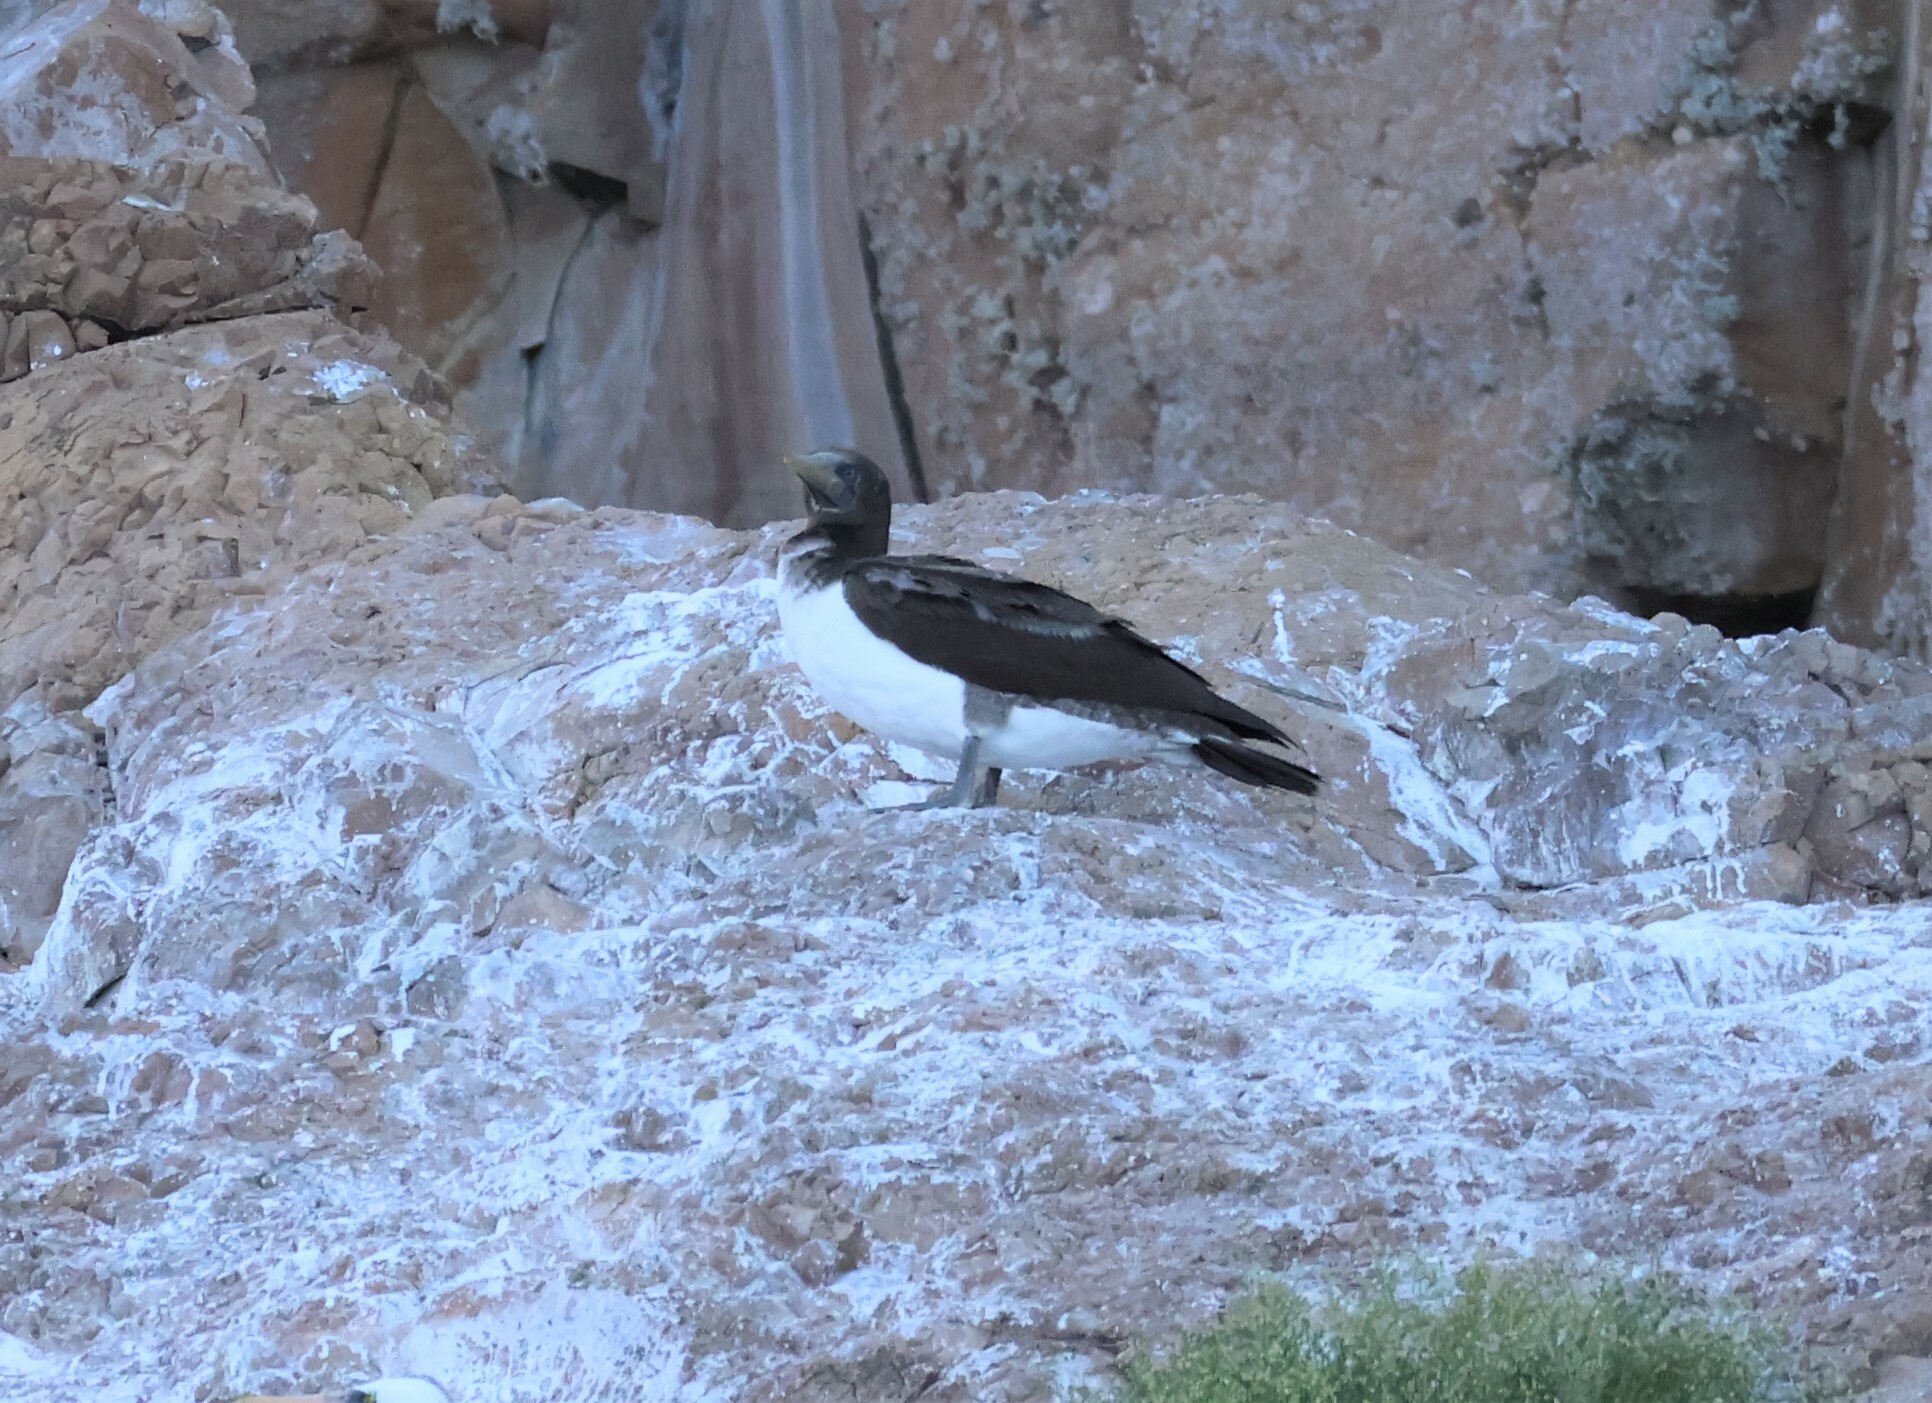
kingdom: Animalia
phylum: Chordata
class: Aves
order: Suliformes
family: Sulidae
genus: Sula
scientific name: Sula granti
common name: Nazca booby
